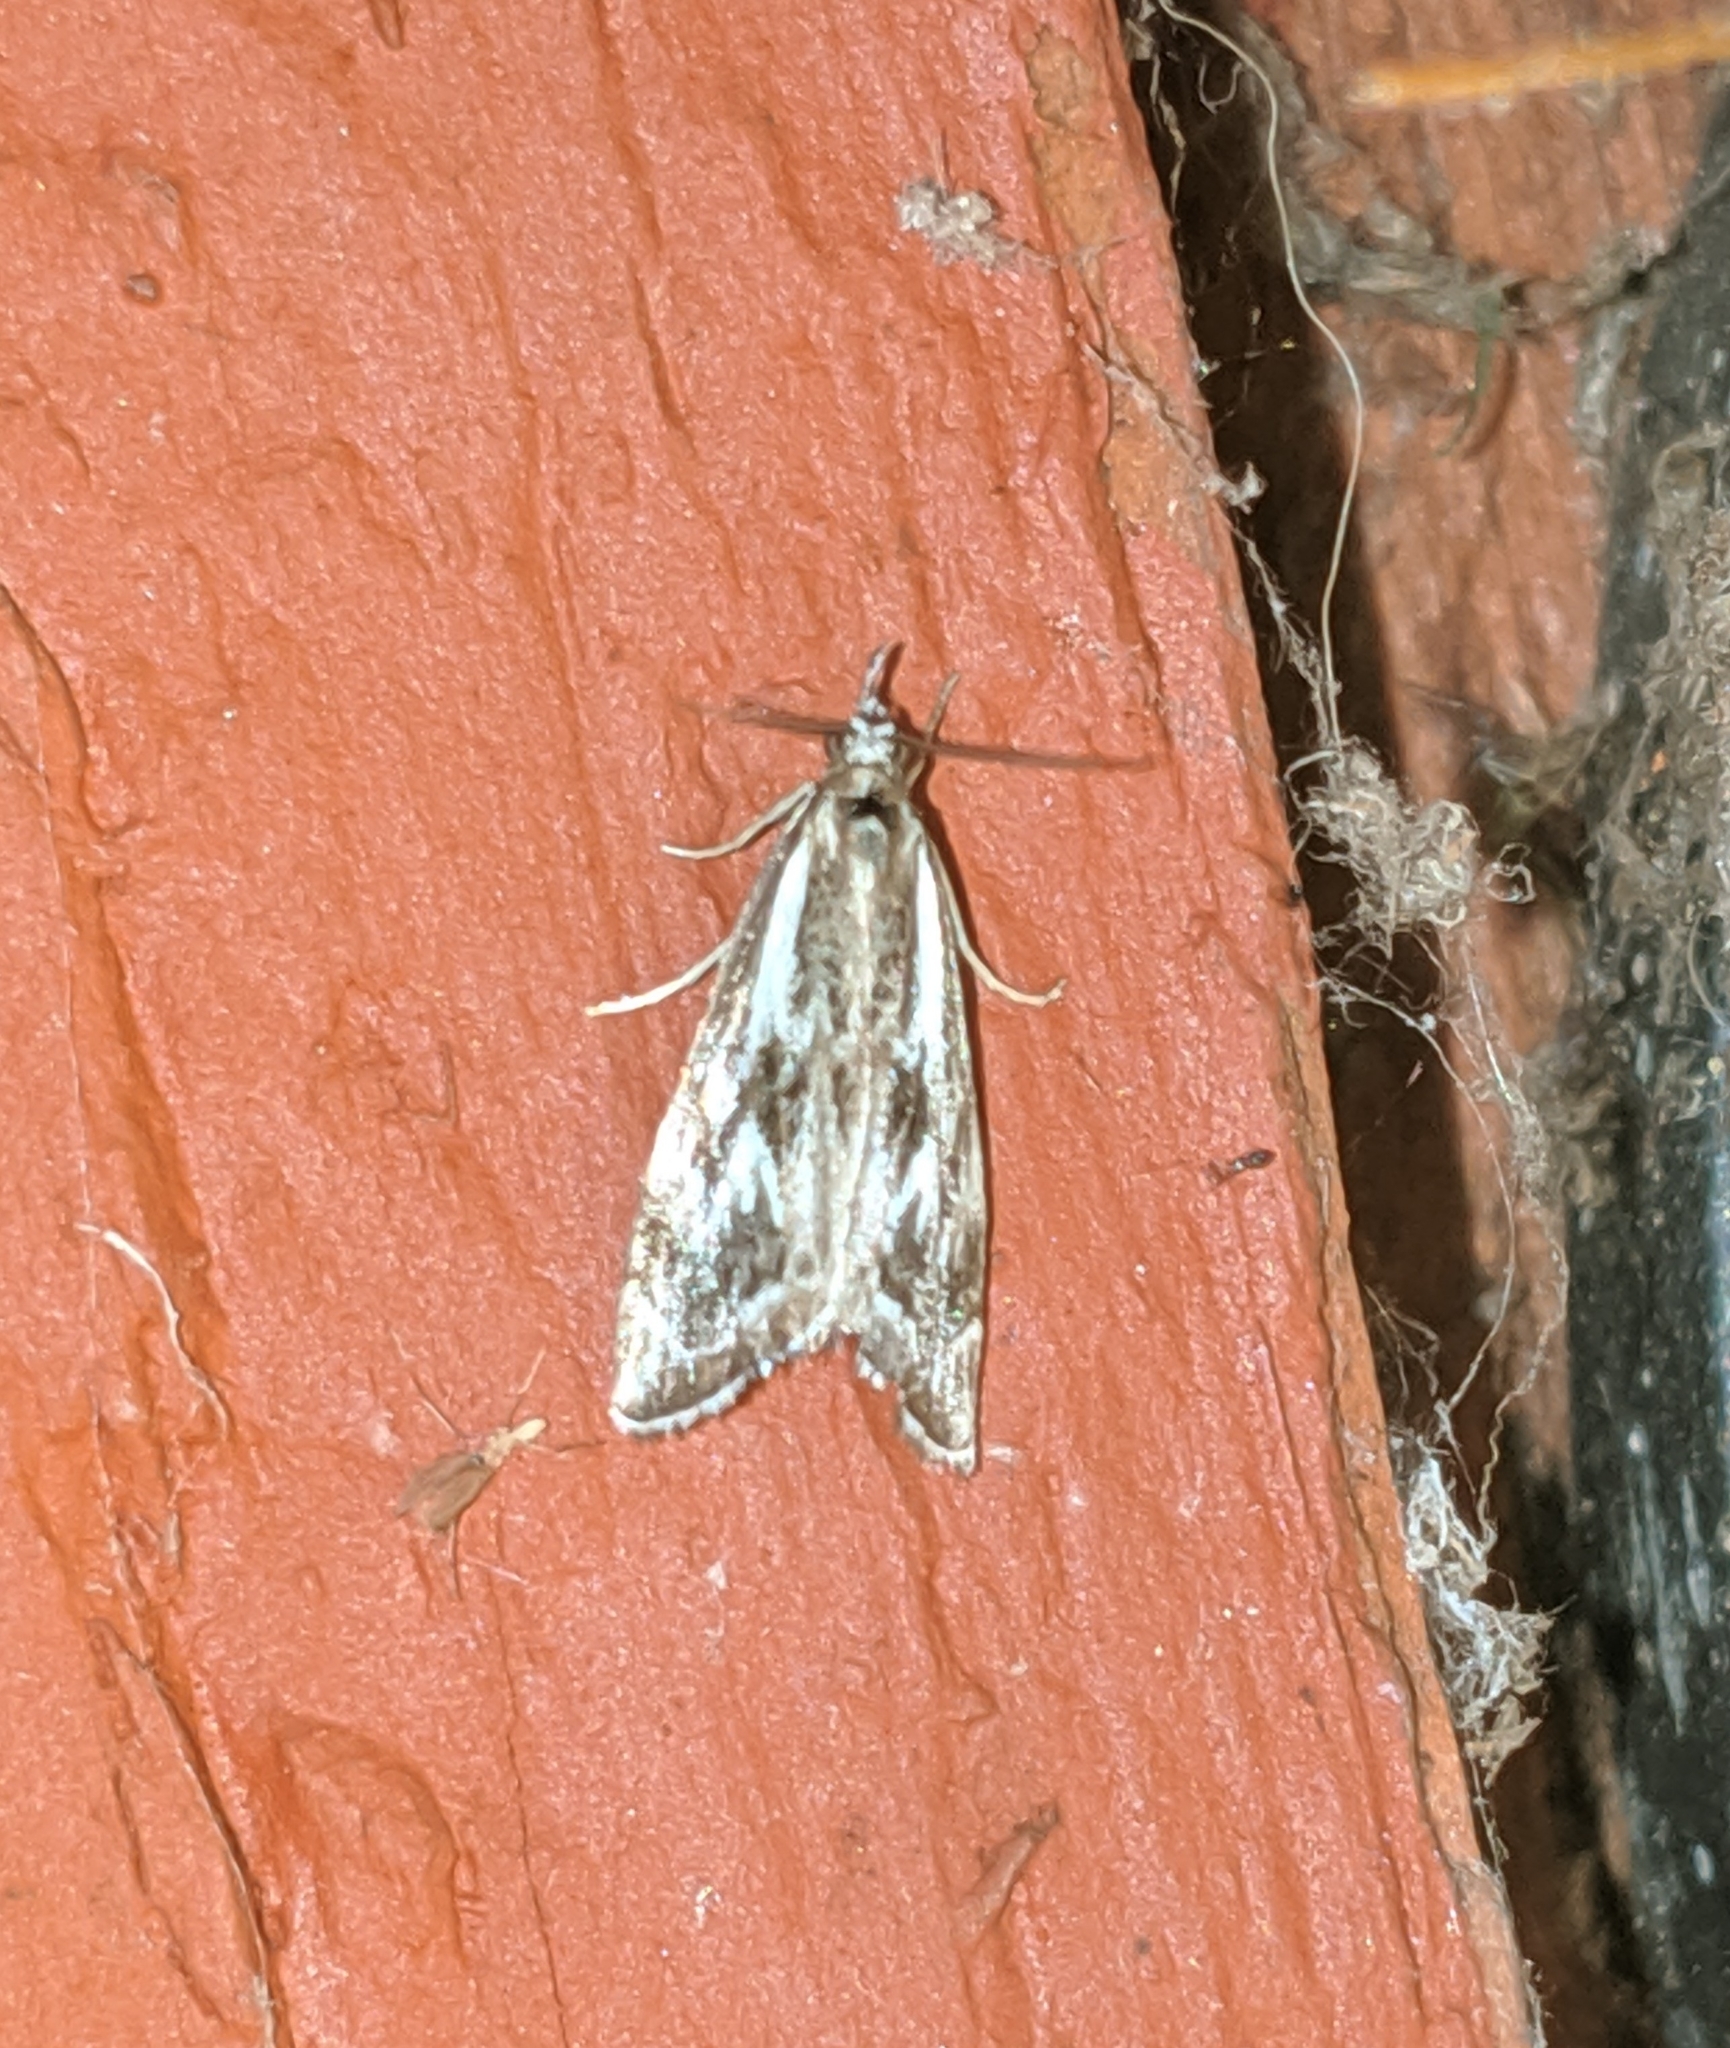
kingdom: Animalia
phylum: Arthropoda
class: Insecta
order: Lepidoptera
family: Crambidae
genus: Catoptria
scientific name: Catoptria oregonicus
